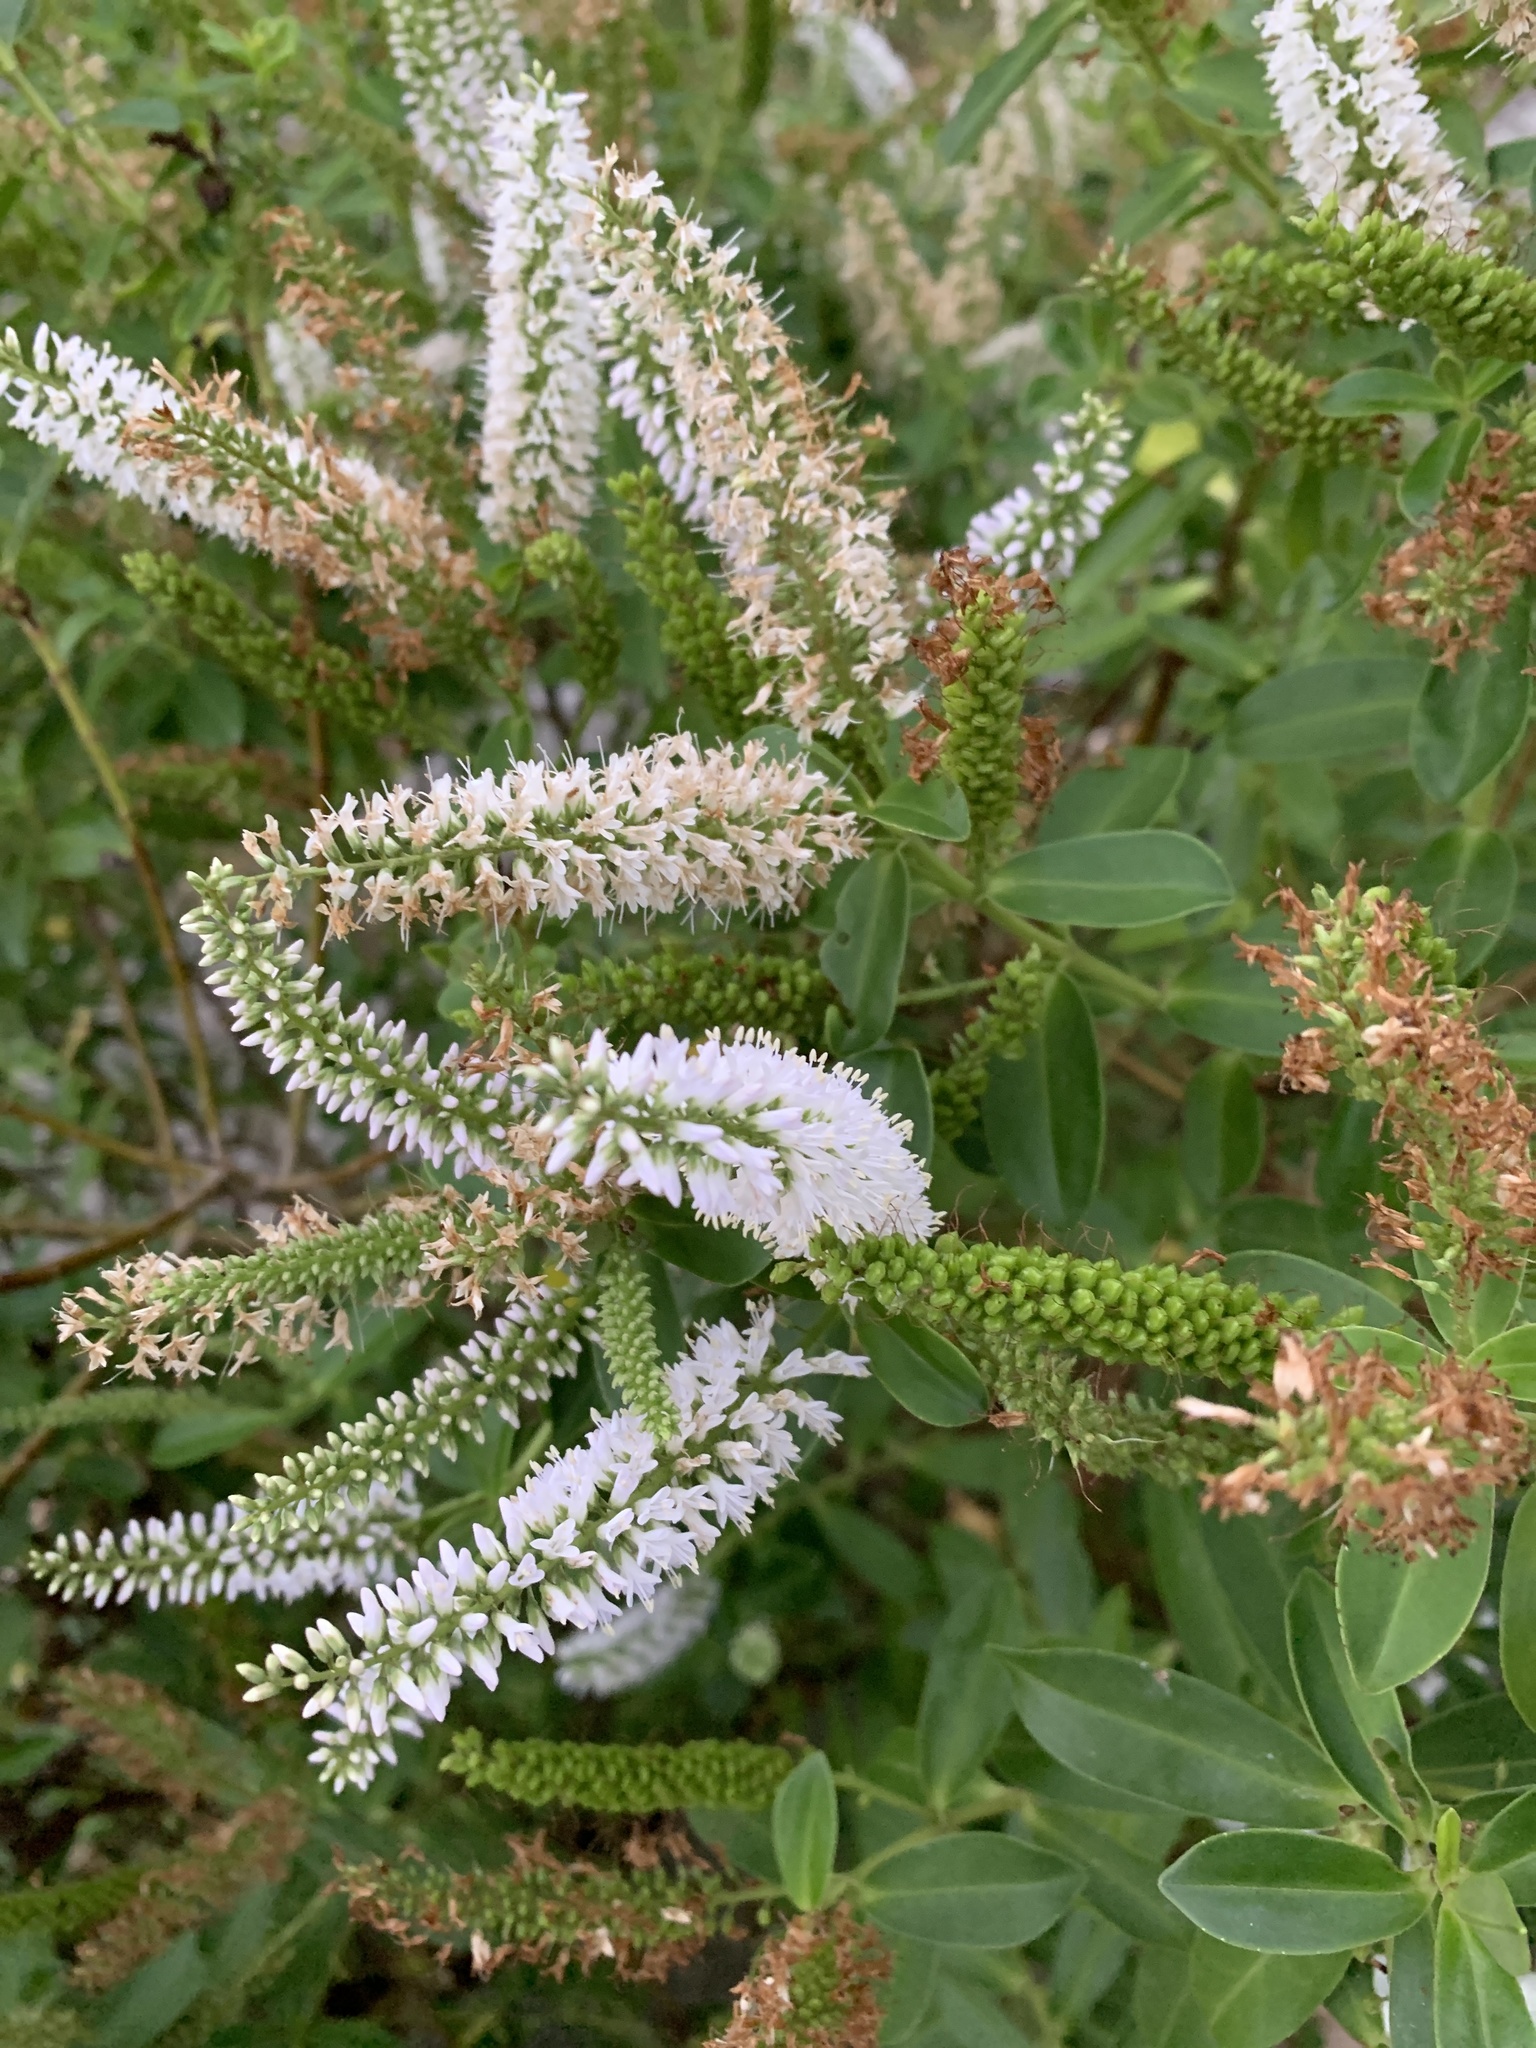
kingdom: Plantae
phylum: Tracheophyta
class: Magnoliopsida
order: Lamiales
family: Plantaginaceae
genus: Veronica
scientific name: Veronica stricta
